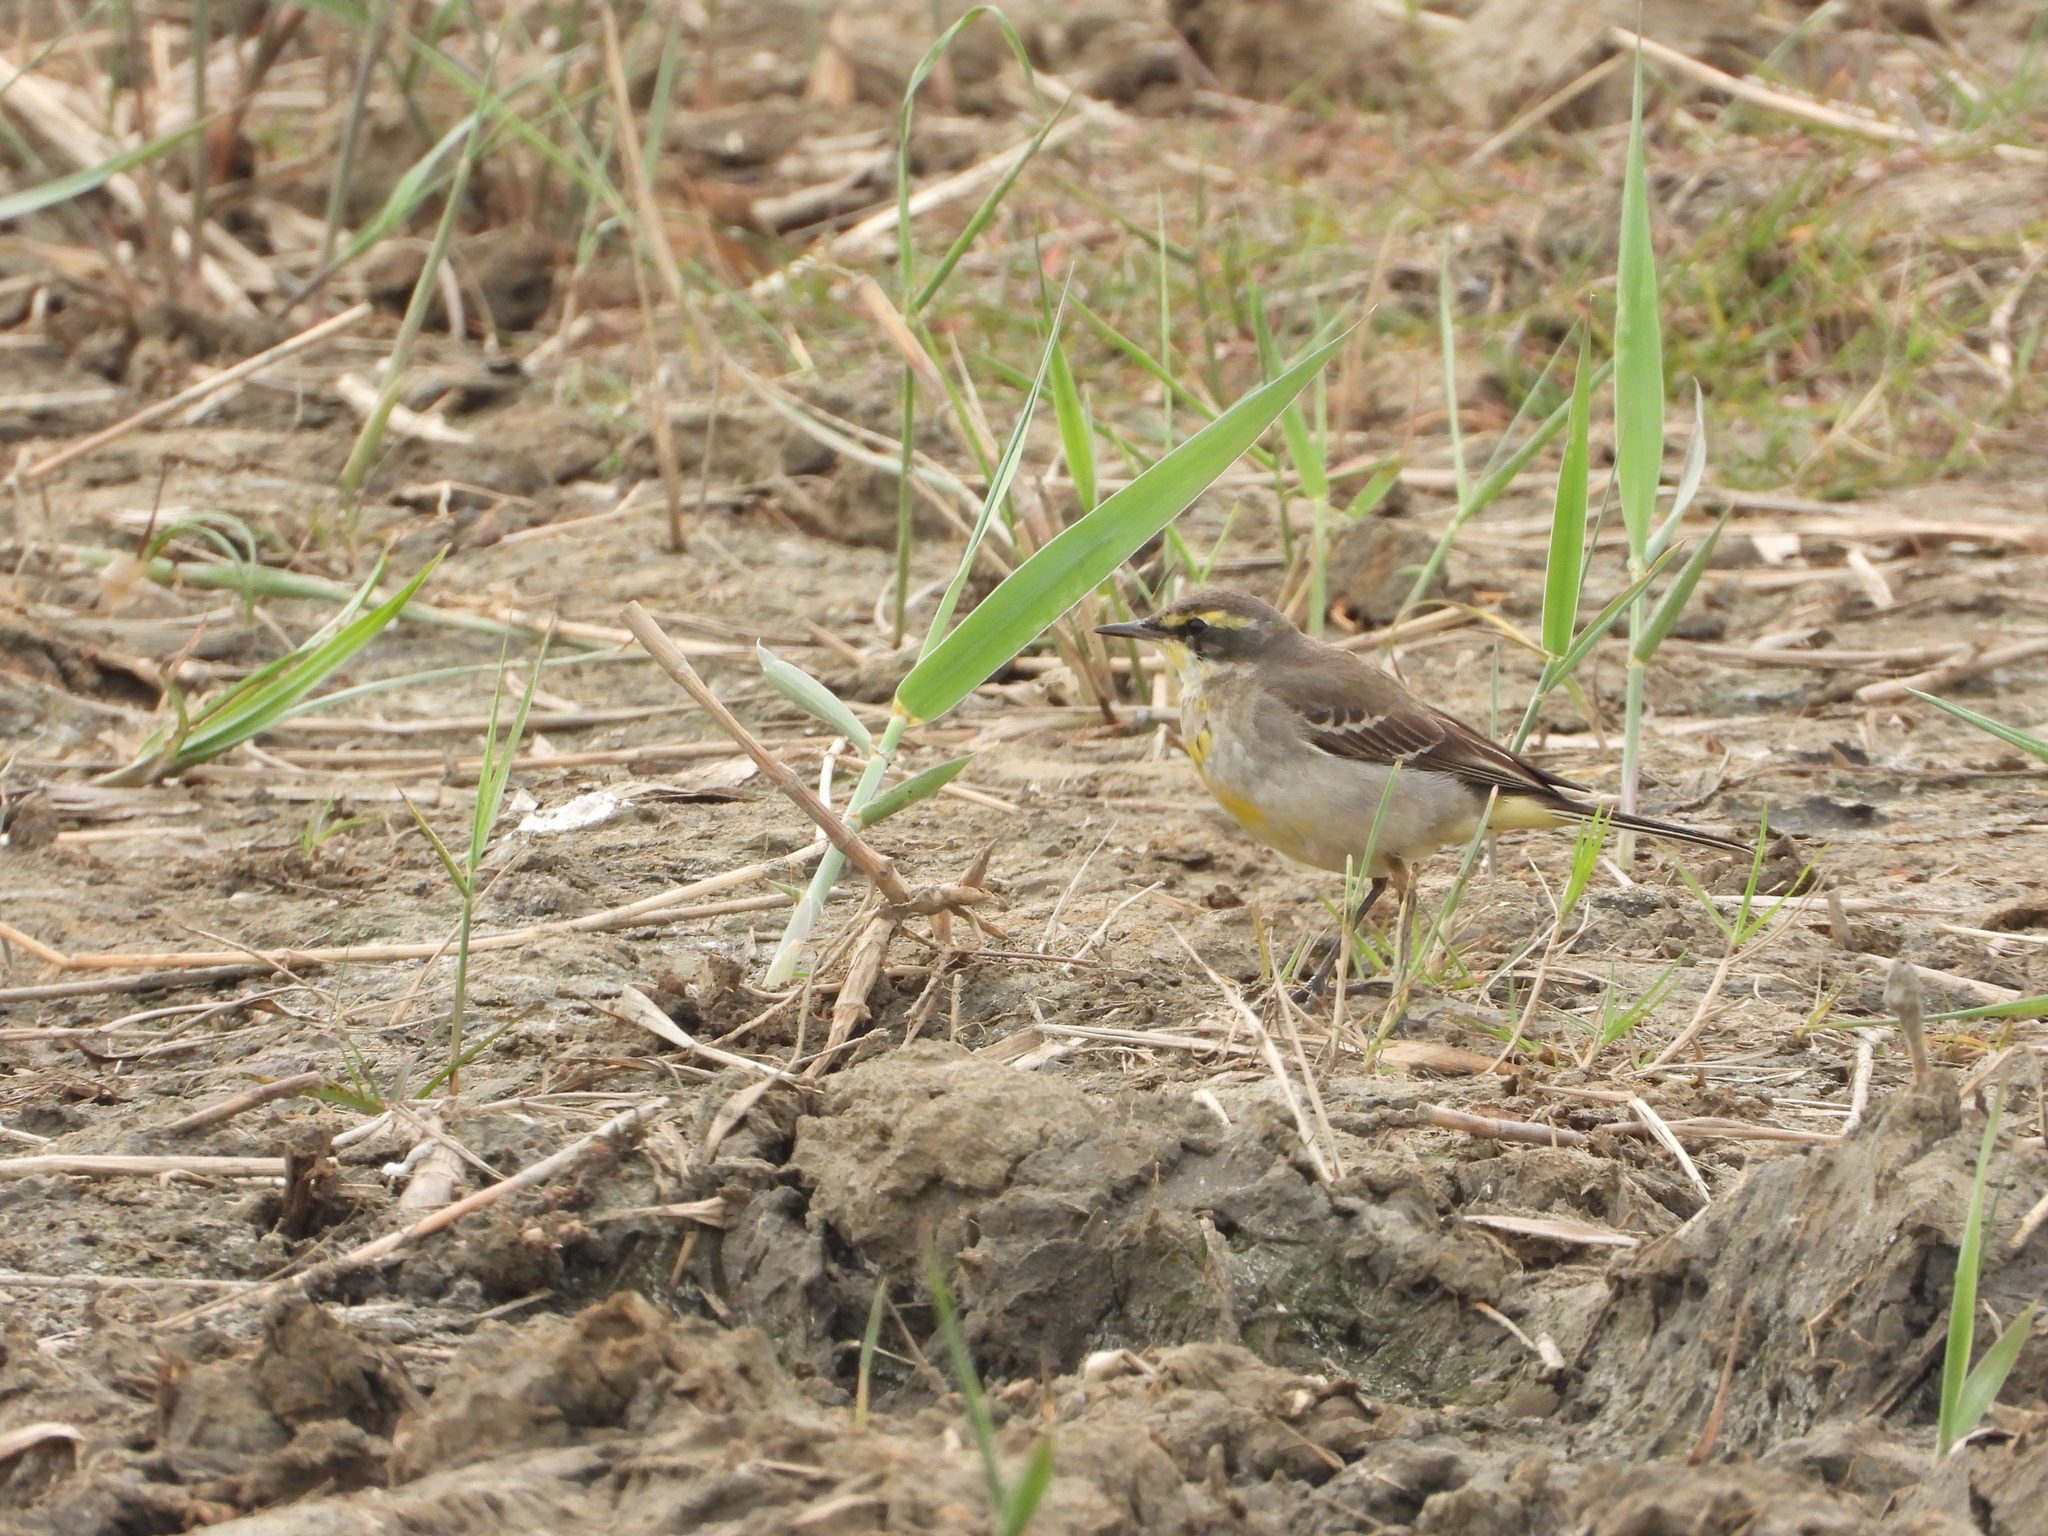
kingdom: Animalia
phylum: Chordata
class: Aves
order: Passeriformes
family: Motacillidae
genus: Motacilla
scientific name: Motacilla tschutschensis
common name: Eastern yellow wagtail
